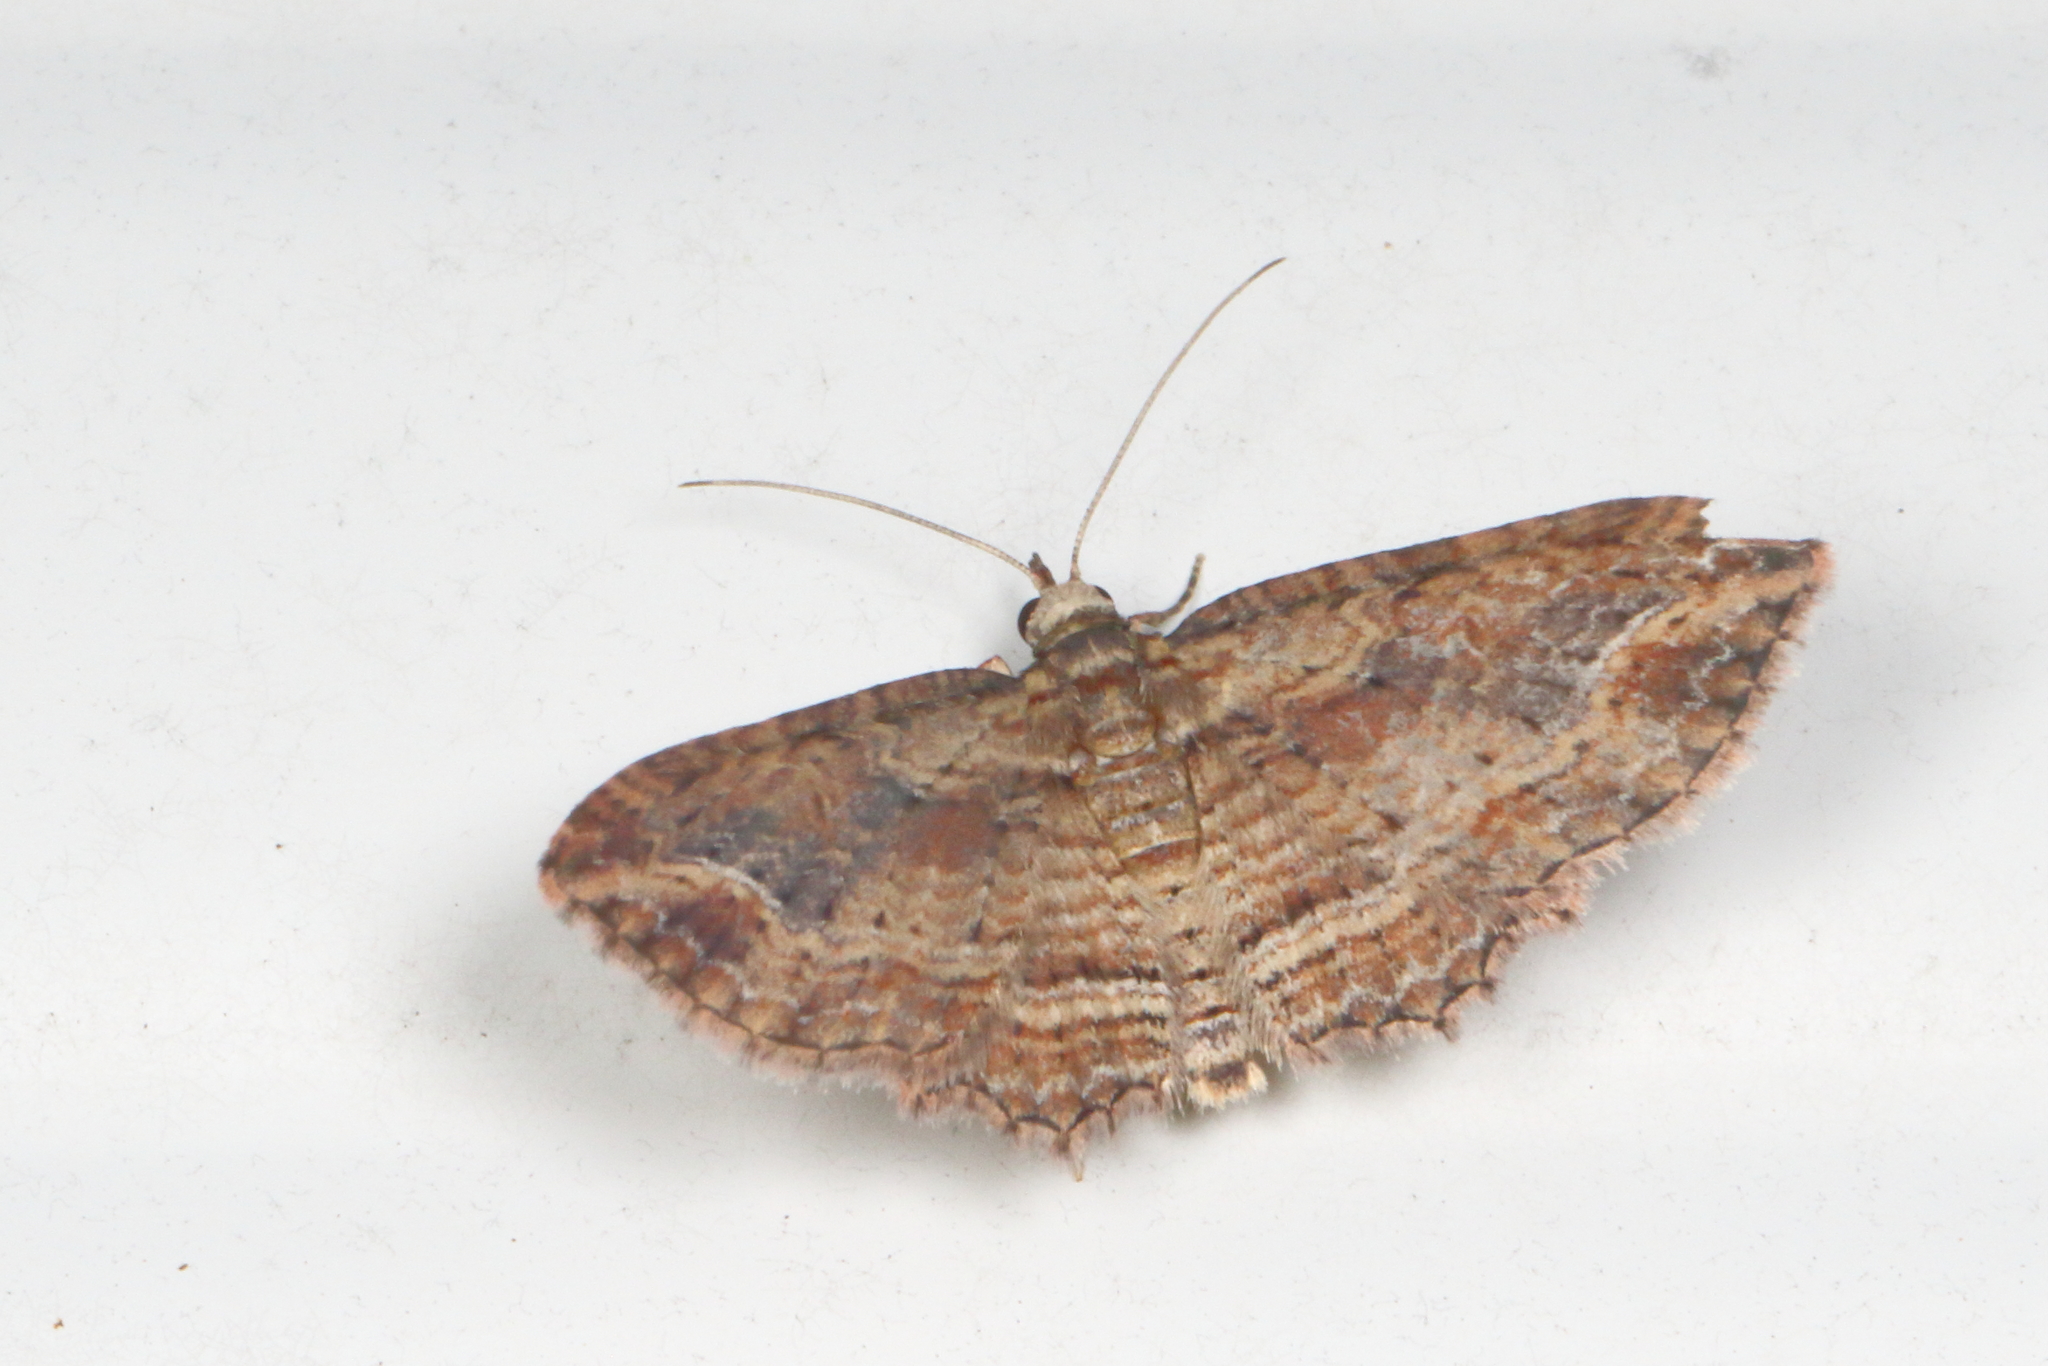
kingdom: Animalia
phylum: Arthropoda
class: Insecta
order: Lepidoptera
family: Geometridae
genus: Chloroclystis
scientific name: Chloroclystis filata
